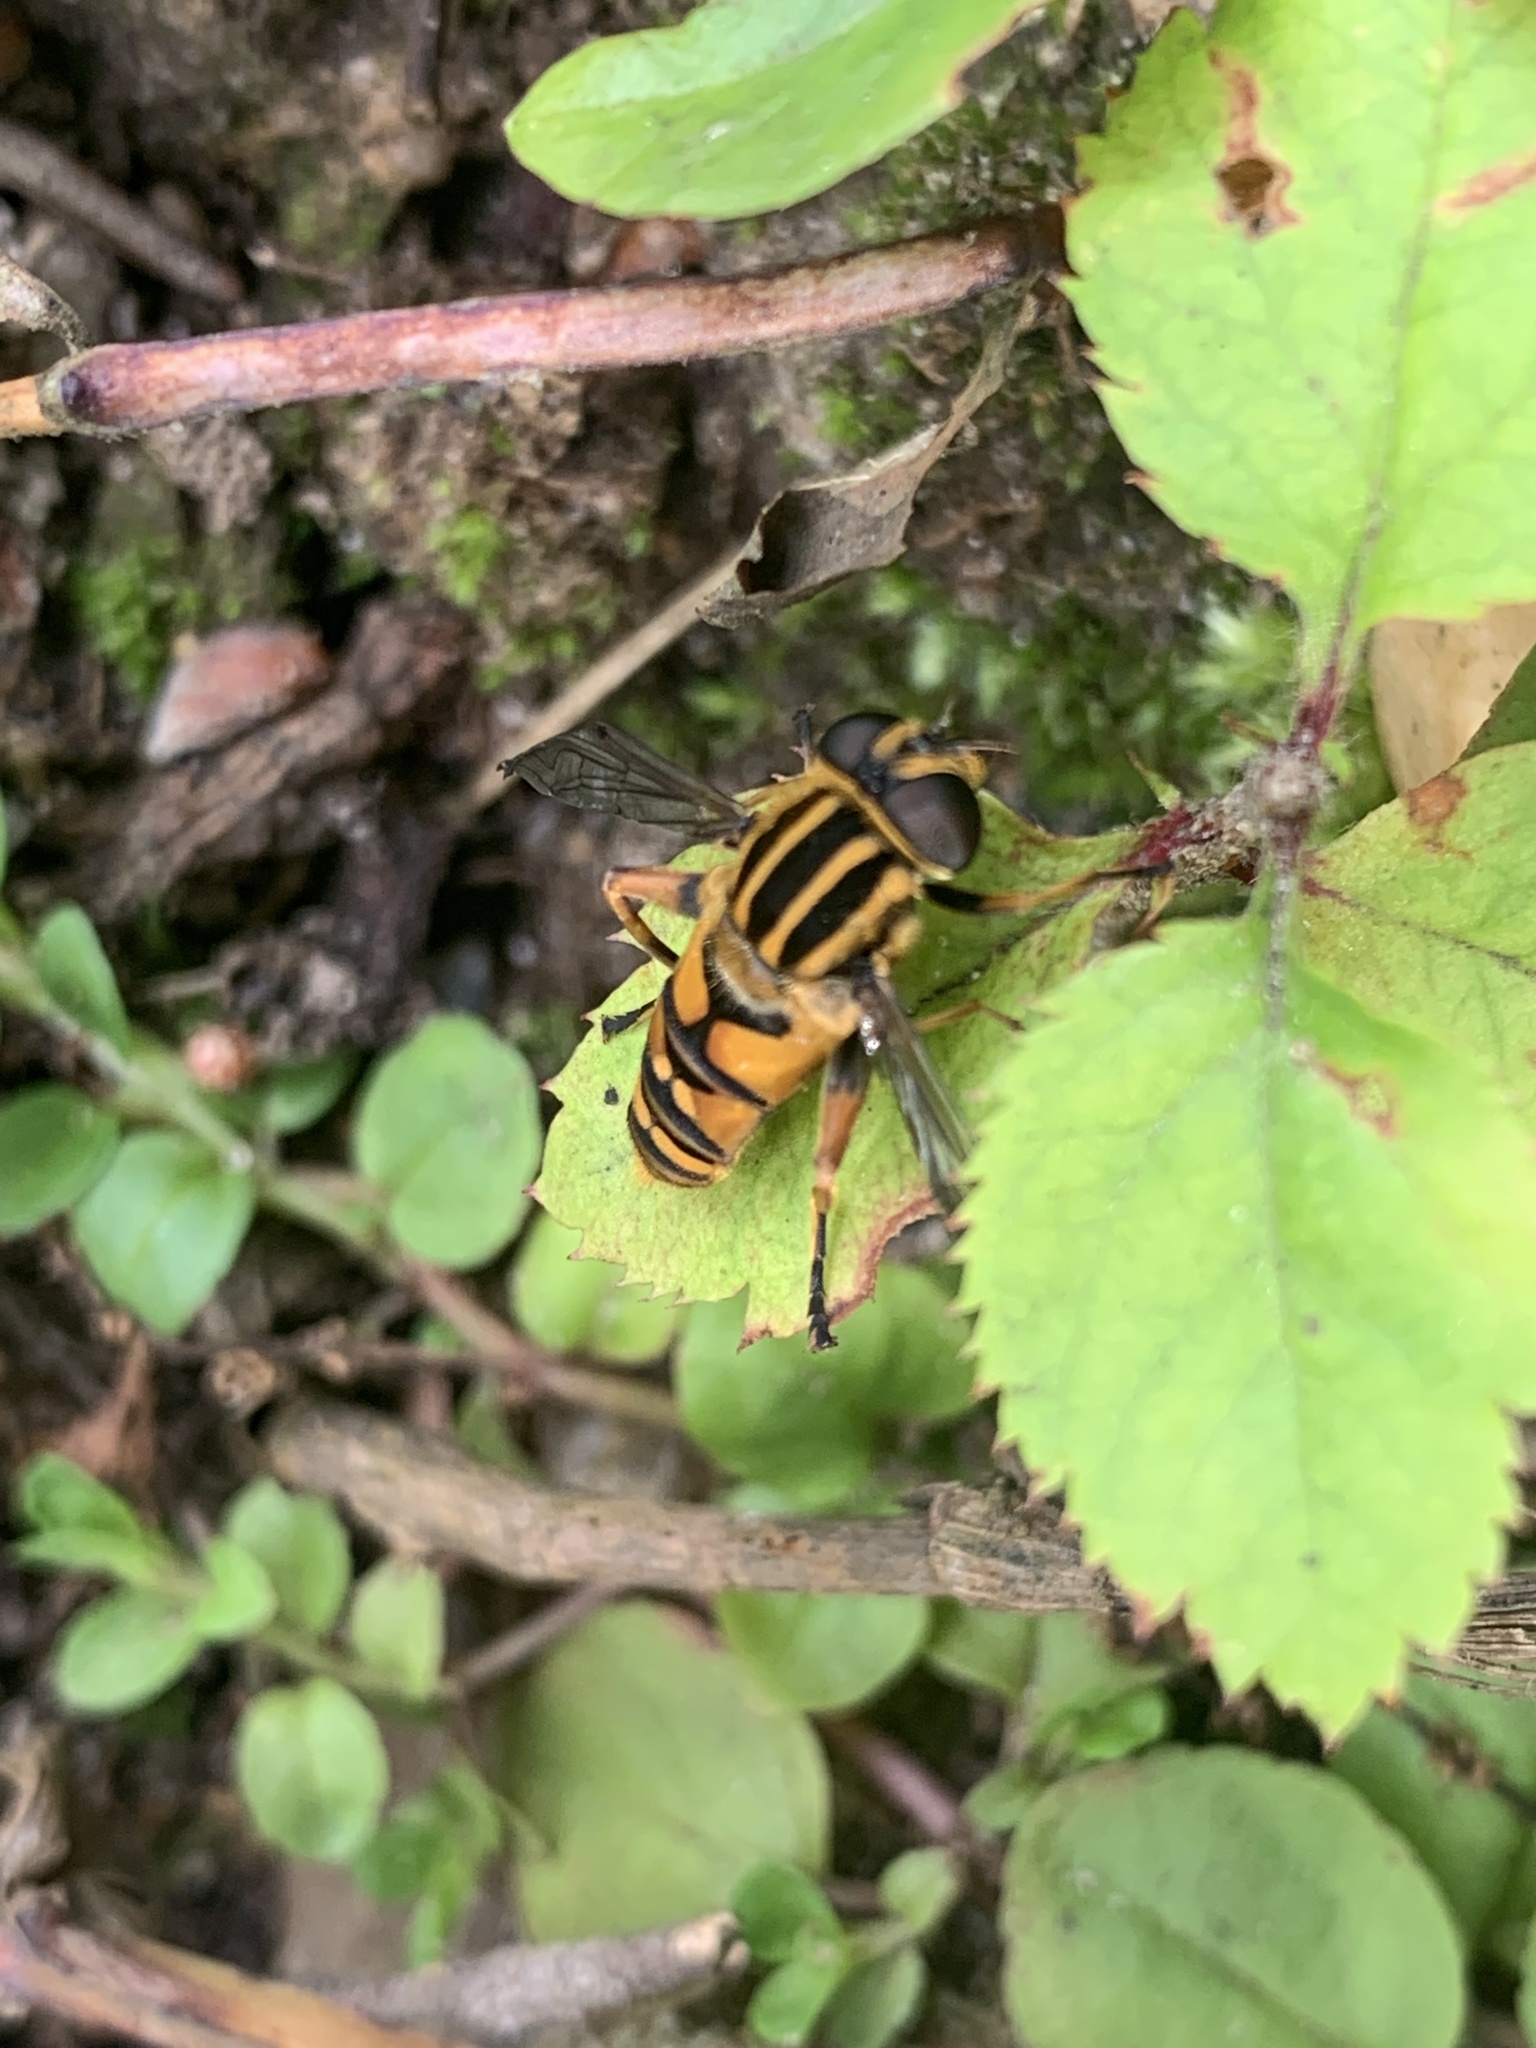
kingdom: Animalia
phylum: Arthropoda
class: Insecta
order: Diptera
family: Syrphidae
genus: Helophilus
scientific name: Helophilus pendulus
